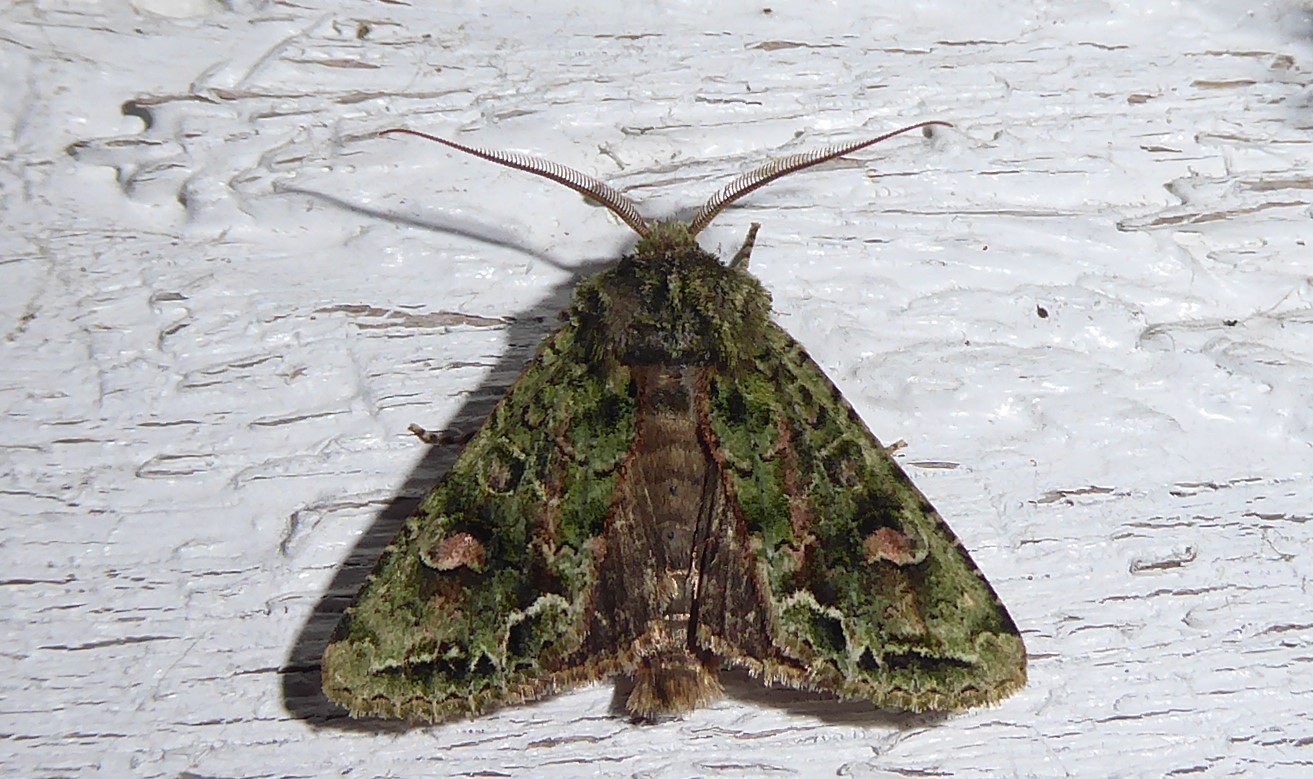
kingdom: Animalia
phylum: Arthropoda
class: Insecta
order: Lepidoptera
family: Noctuidae
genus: Ichneutica
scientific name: Ichneutica
